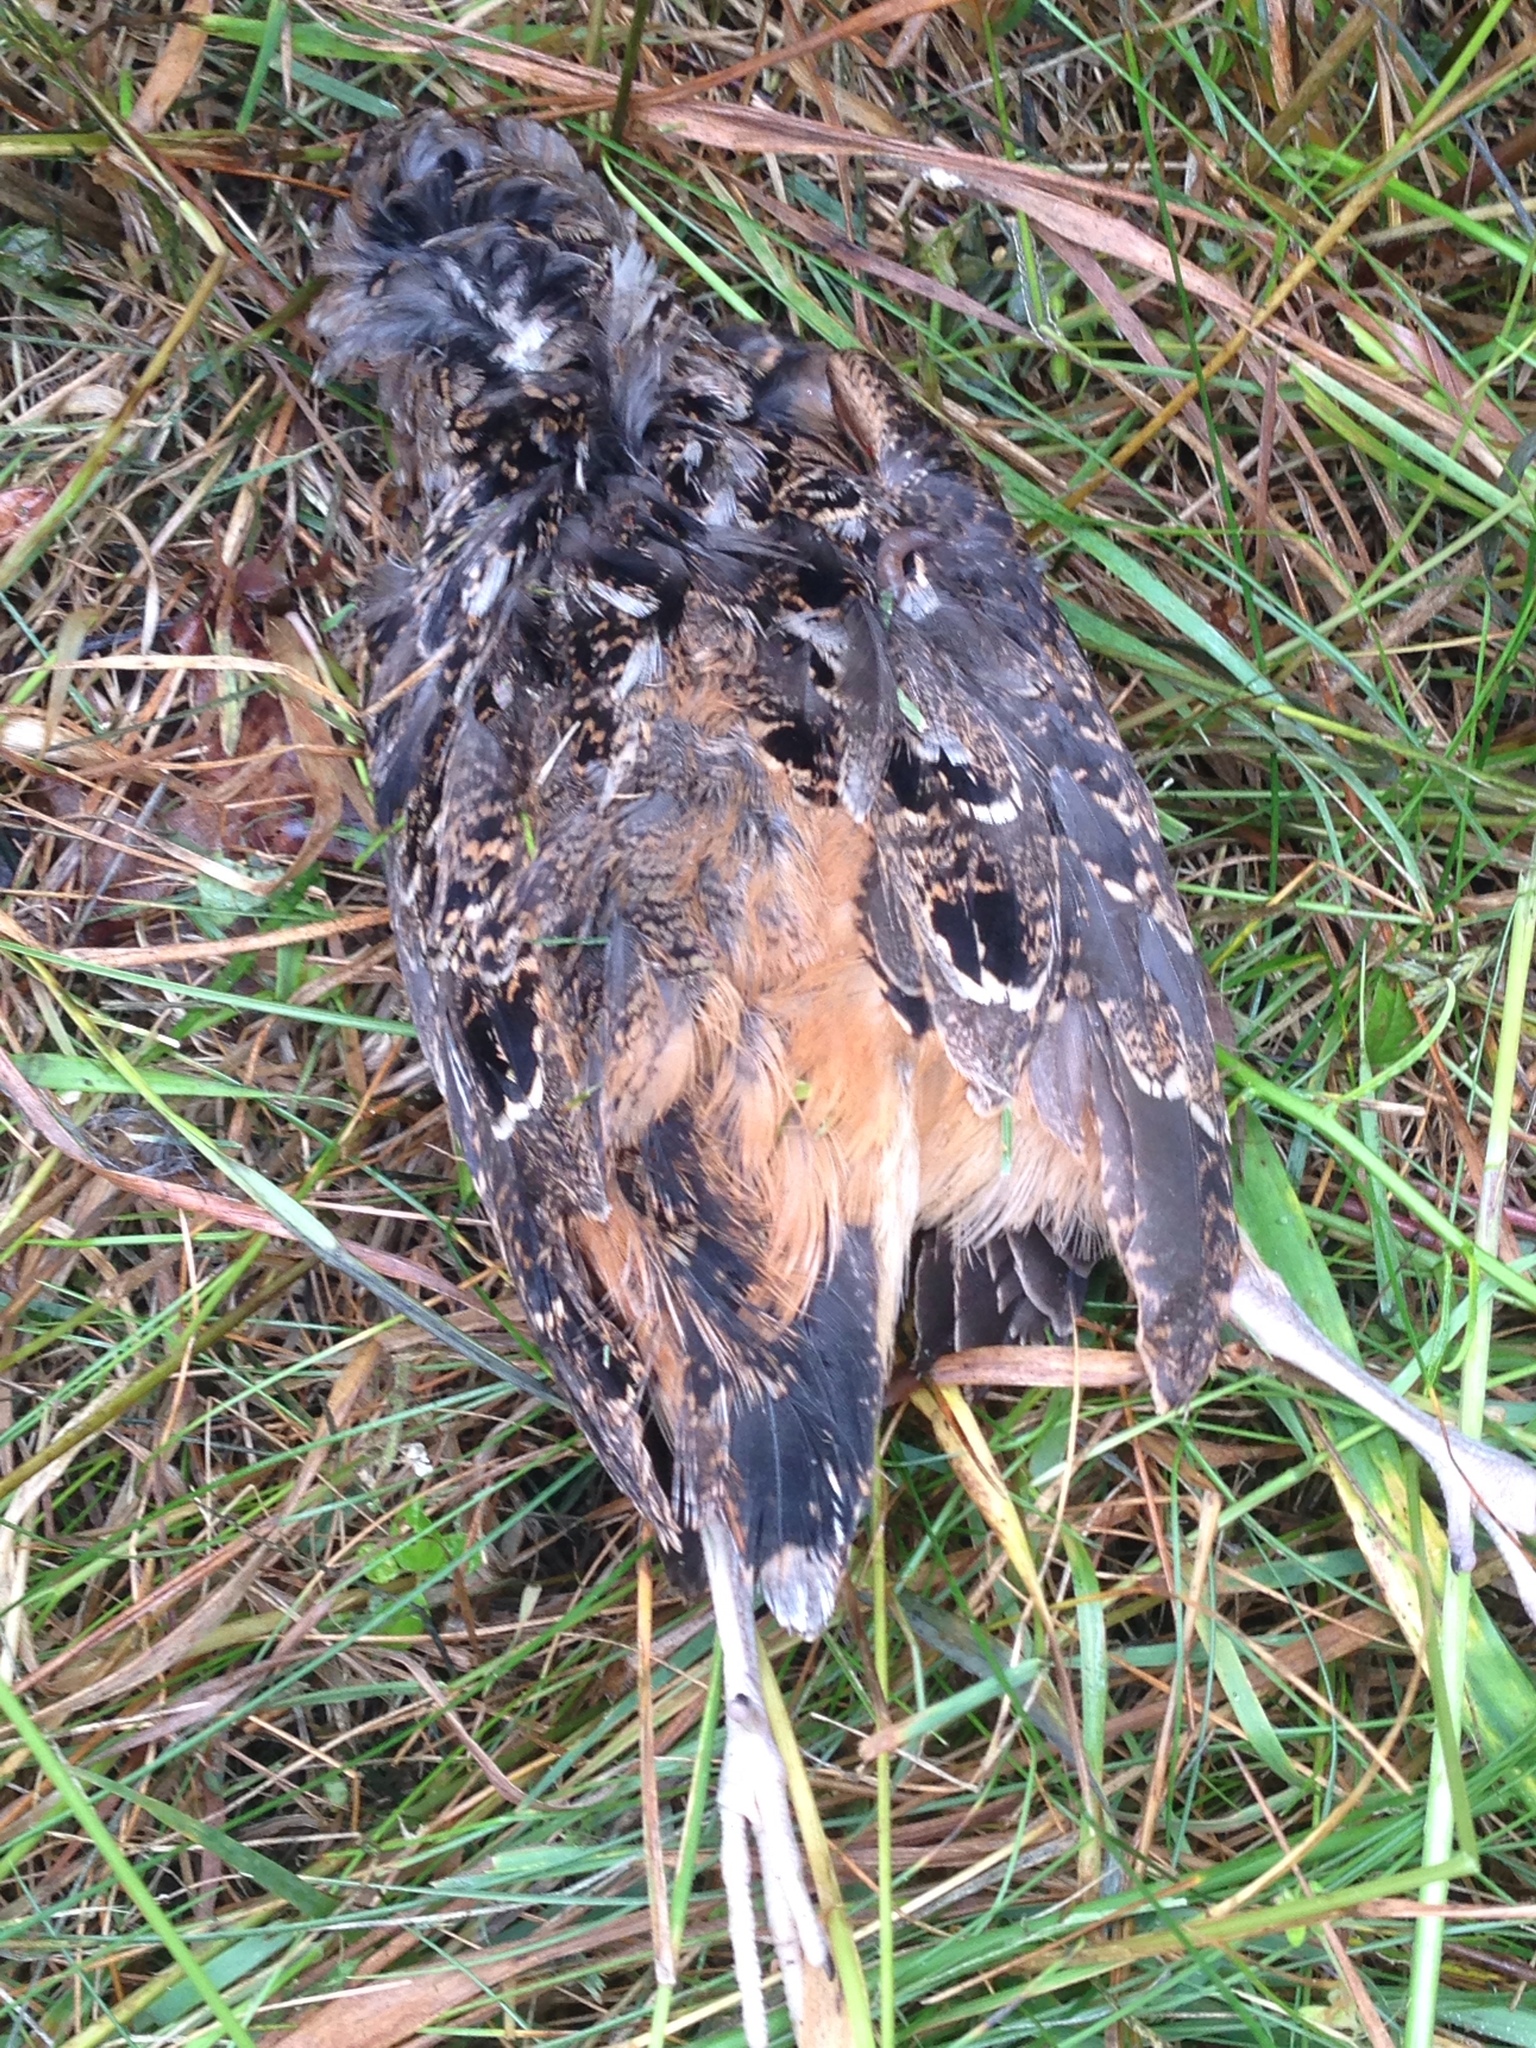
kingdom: Animalia
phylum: Chordata
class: Aves
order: Charadriiformes
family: Scolopacidae
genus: Scolopax
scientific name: Scolopax minor
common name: American woodcock
